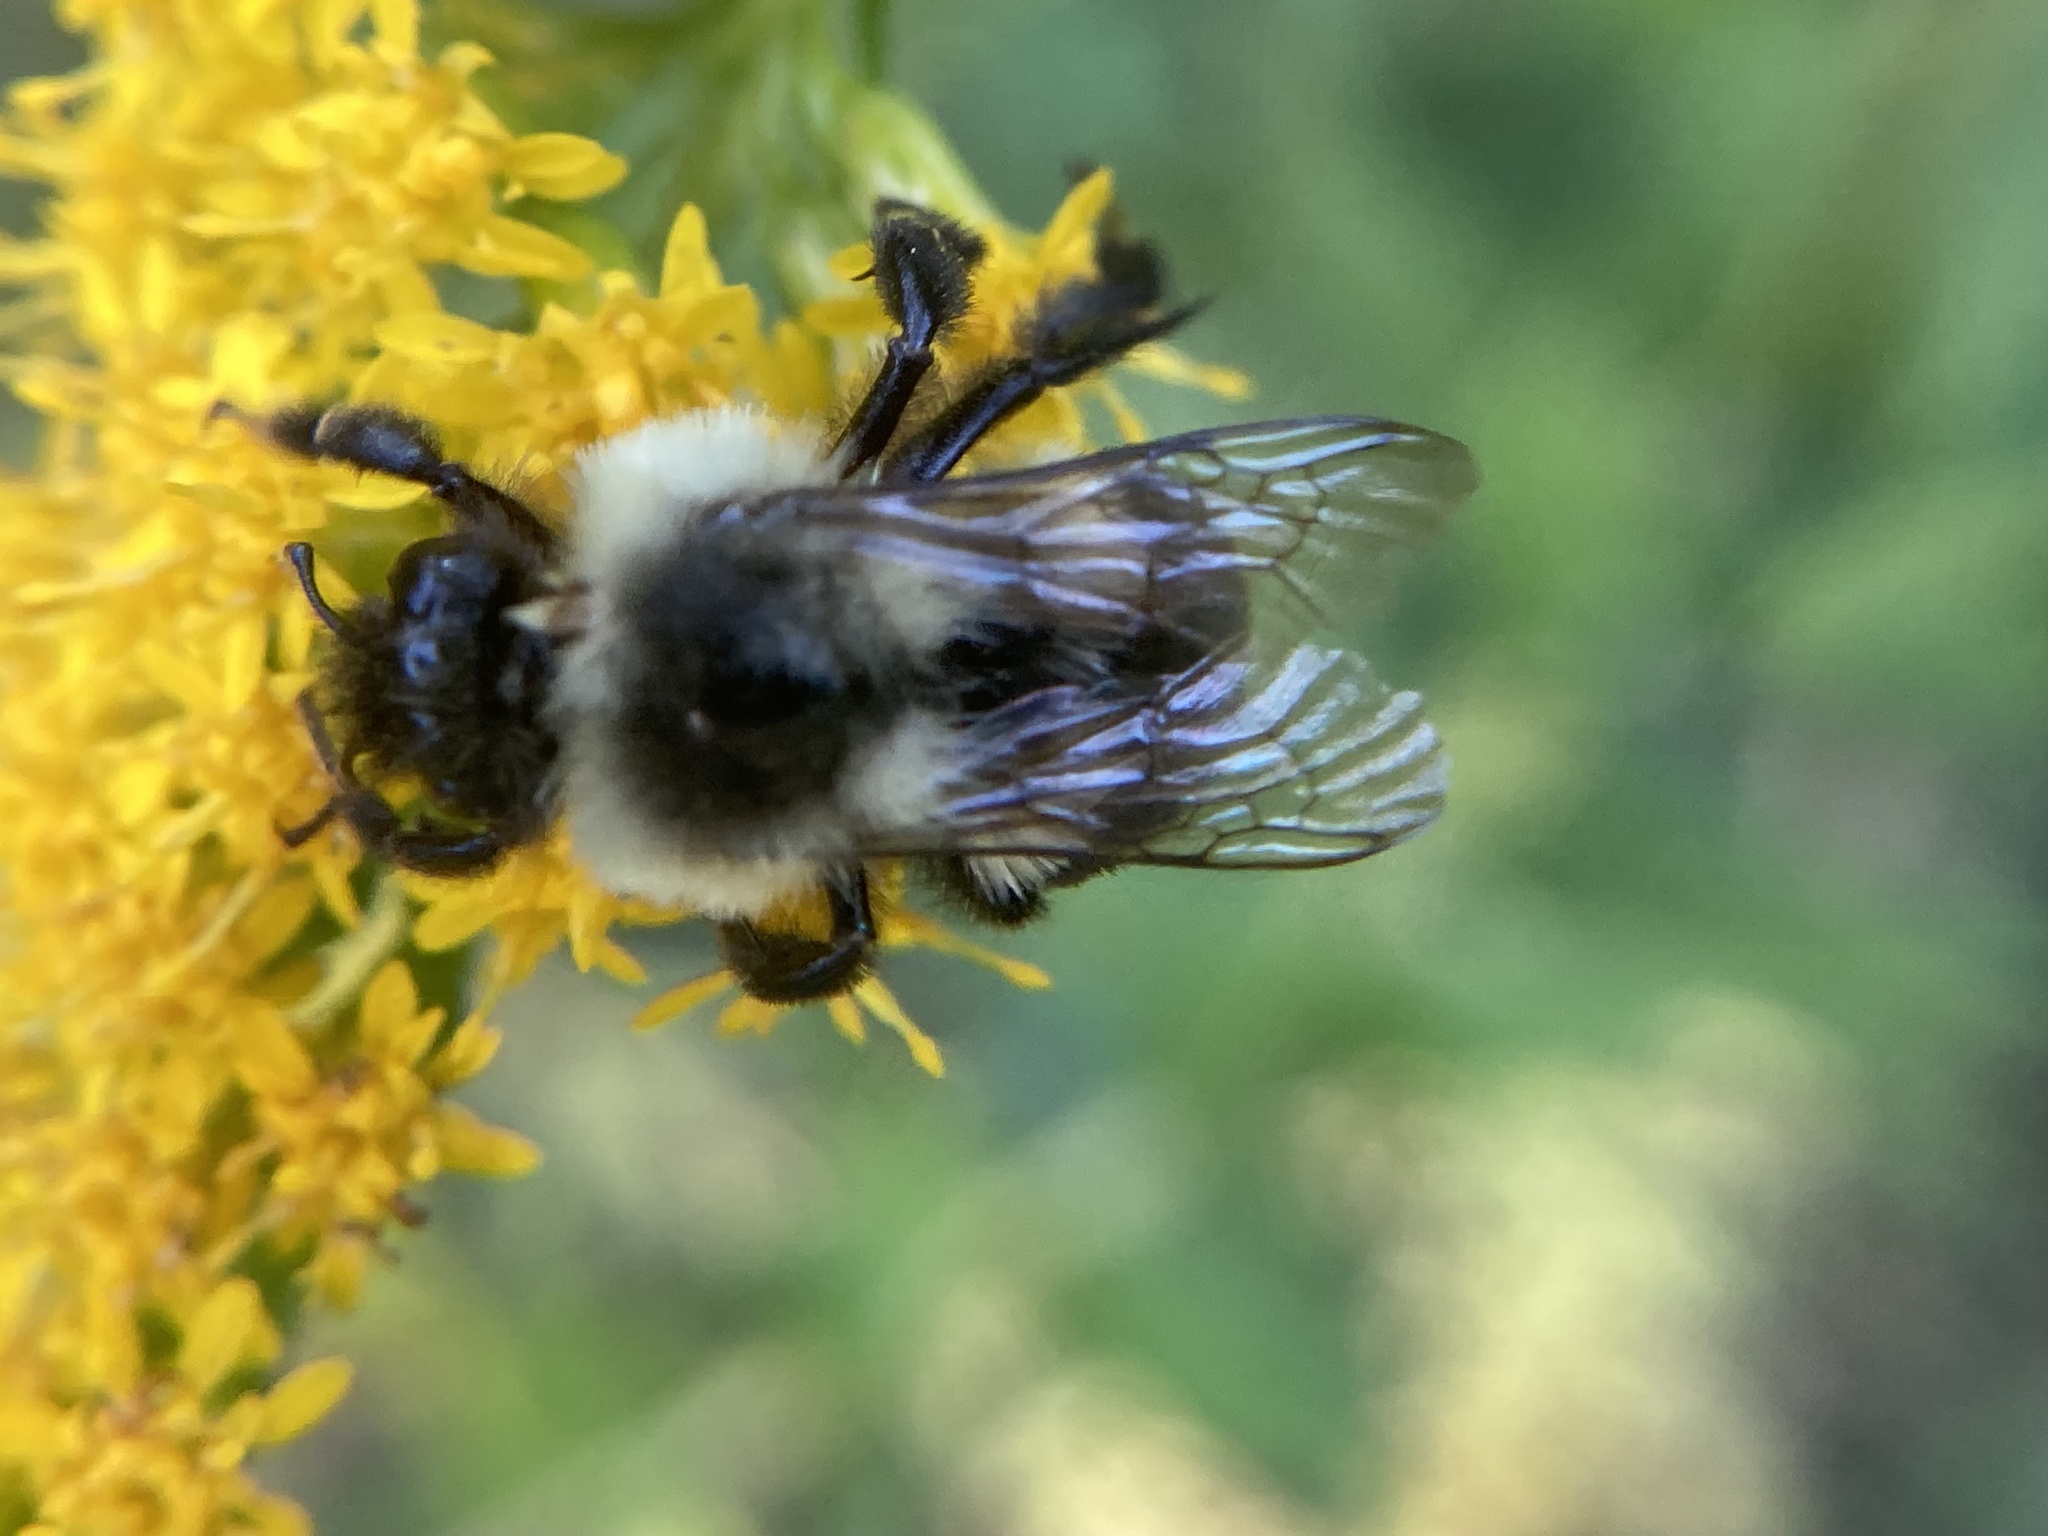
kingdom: Animalia
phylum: Arthropoda
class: Insecta
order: Hymenoptera
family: Apidae
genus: Bombus
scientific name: Bombus impatiens
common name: Common eastern bumble bee
